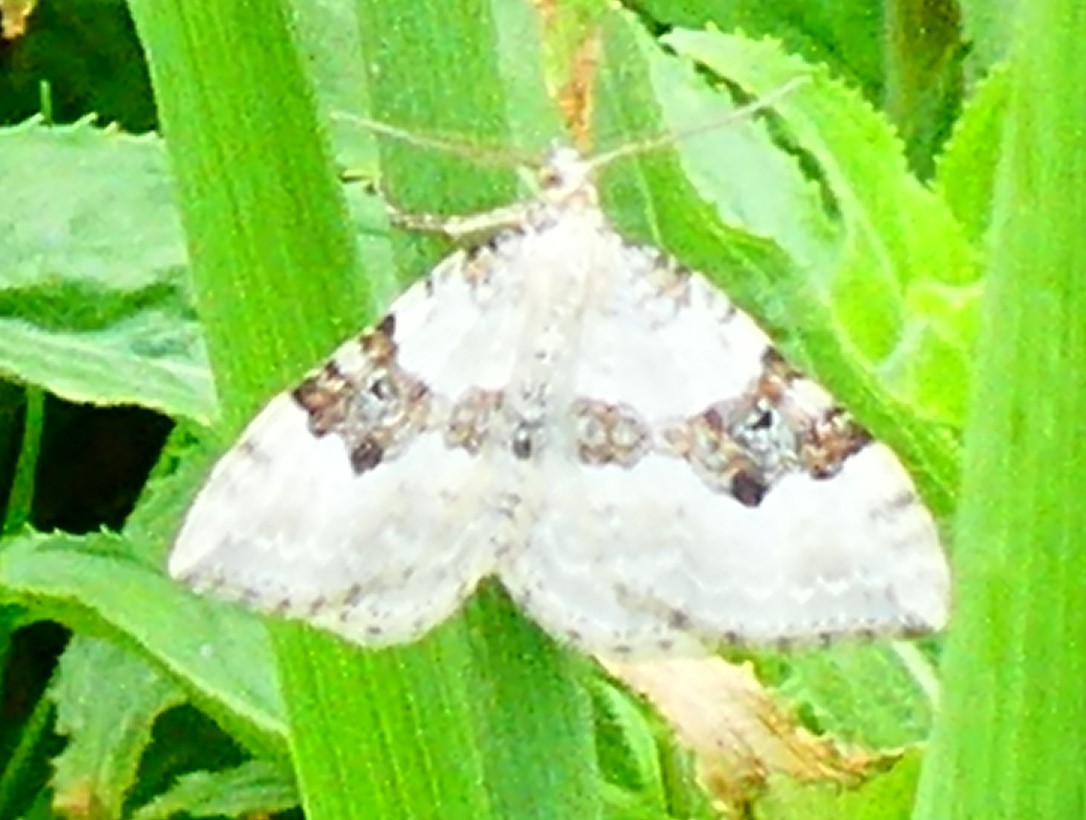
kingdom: Animalia
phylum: Arthropoda
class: Insecta
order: Lepidoptera
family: Geometridae
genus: Xanthorhoe
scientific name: Xanthorhoe montanata
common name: Silver-ground carpet
